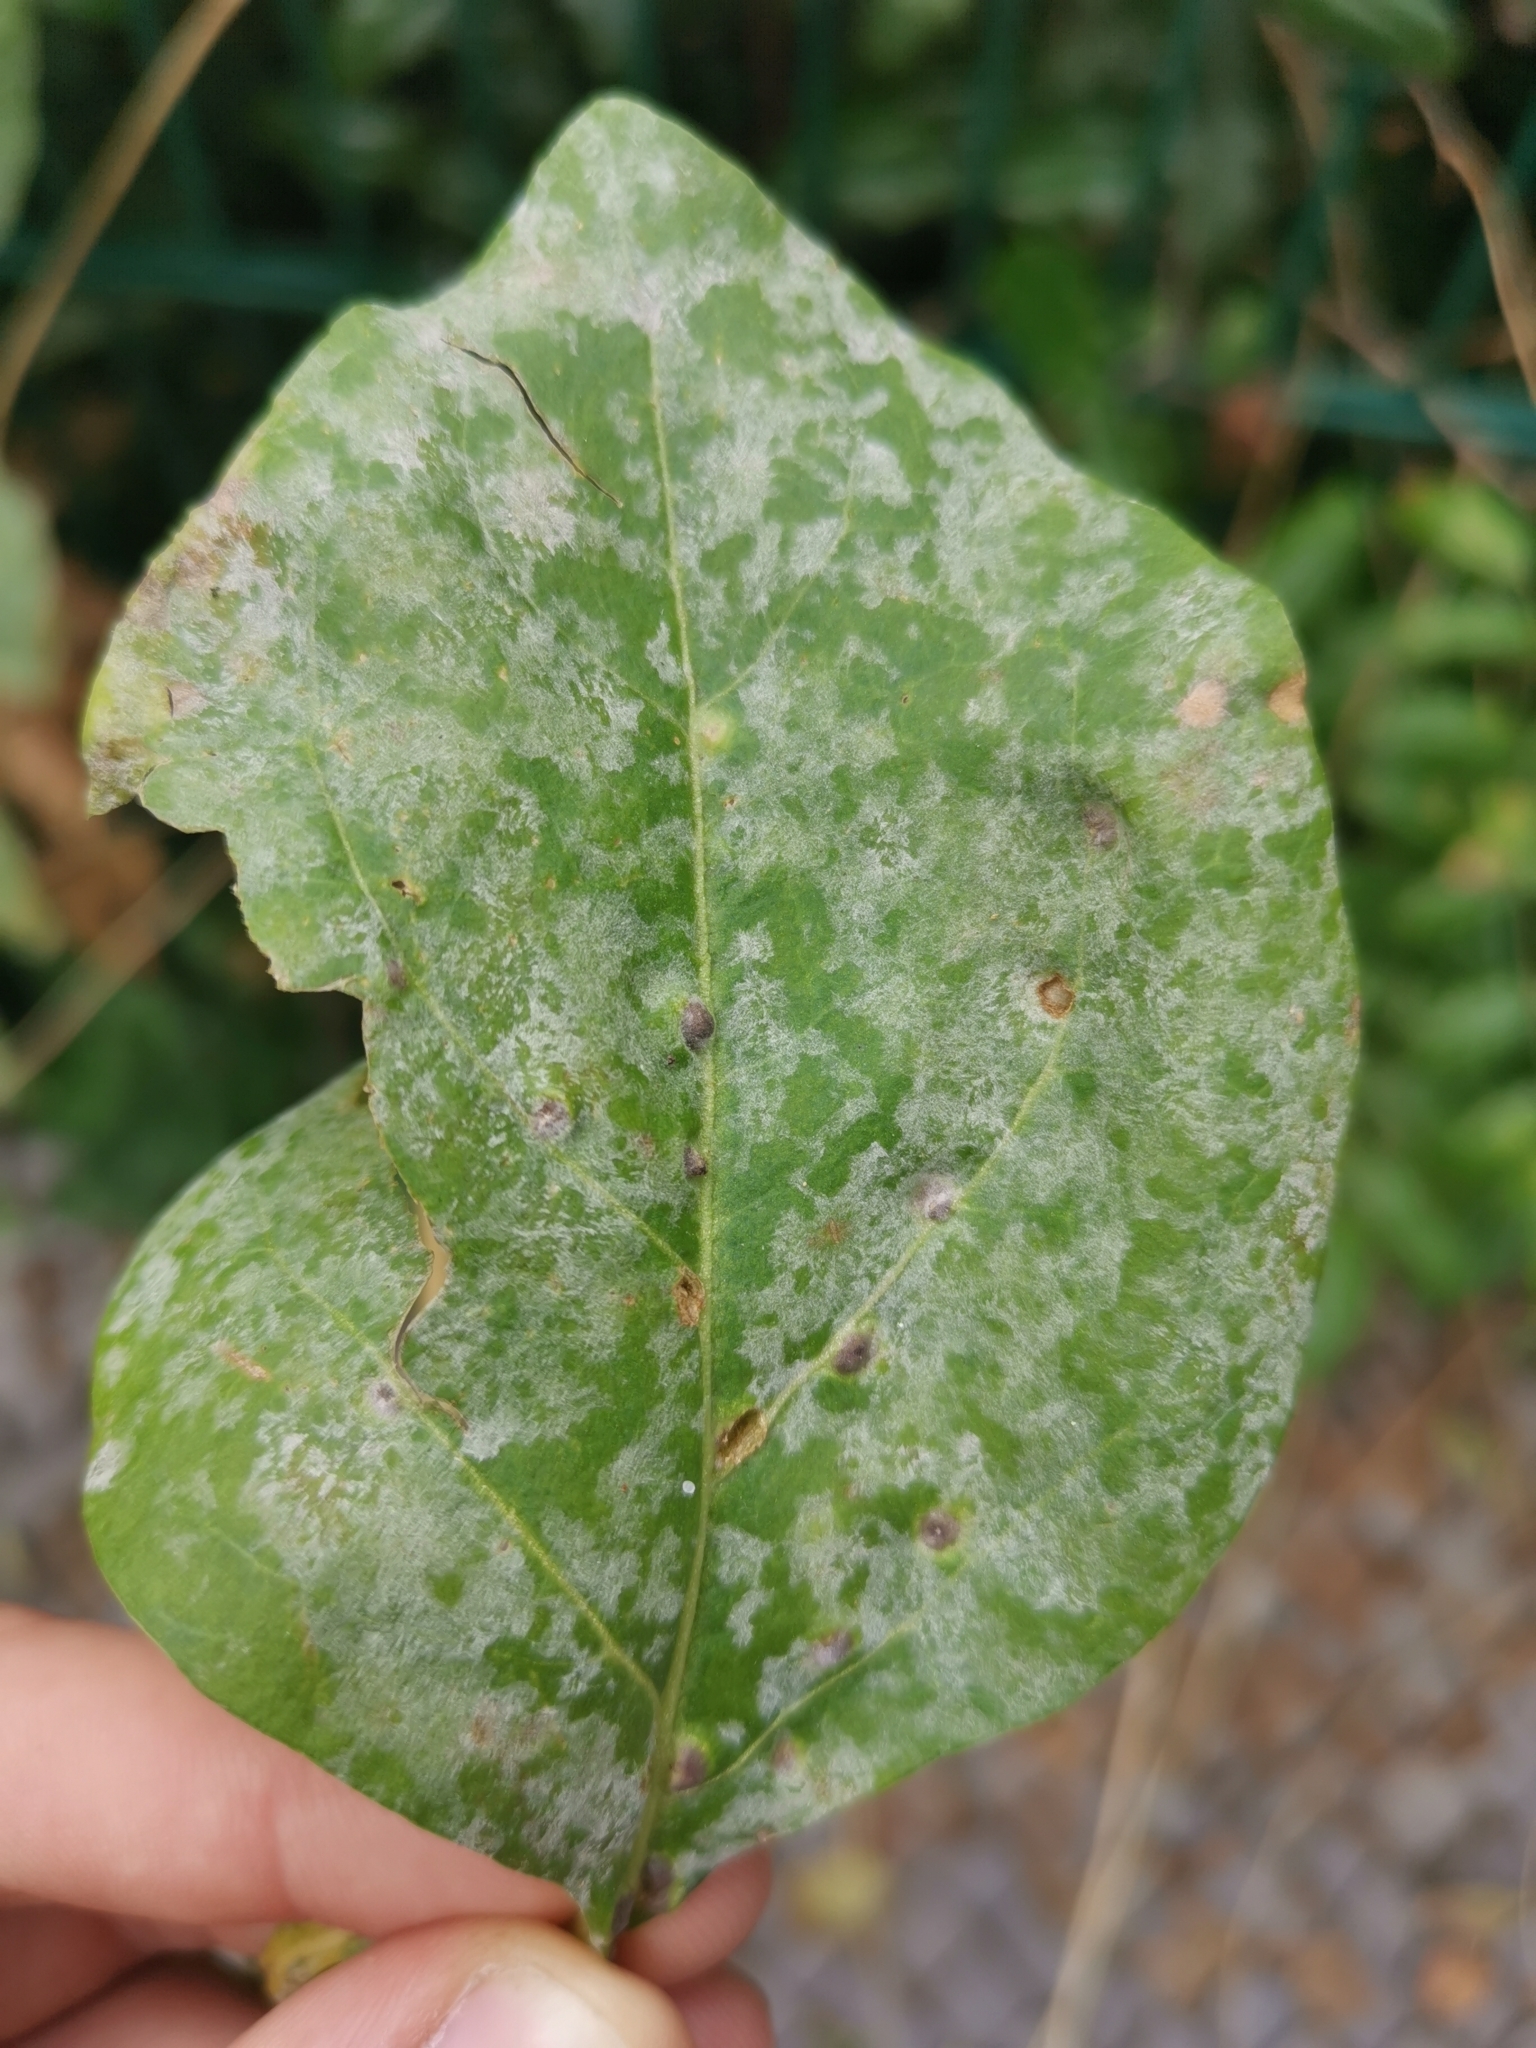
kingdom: Fungi
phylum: Ascomycota
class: Leotiomycetes
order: Helotiales
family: Erysiphaceae
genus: Erysiphe
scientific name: Erysiphe mougeotii
